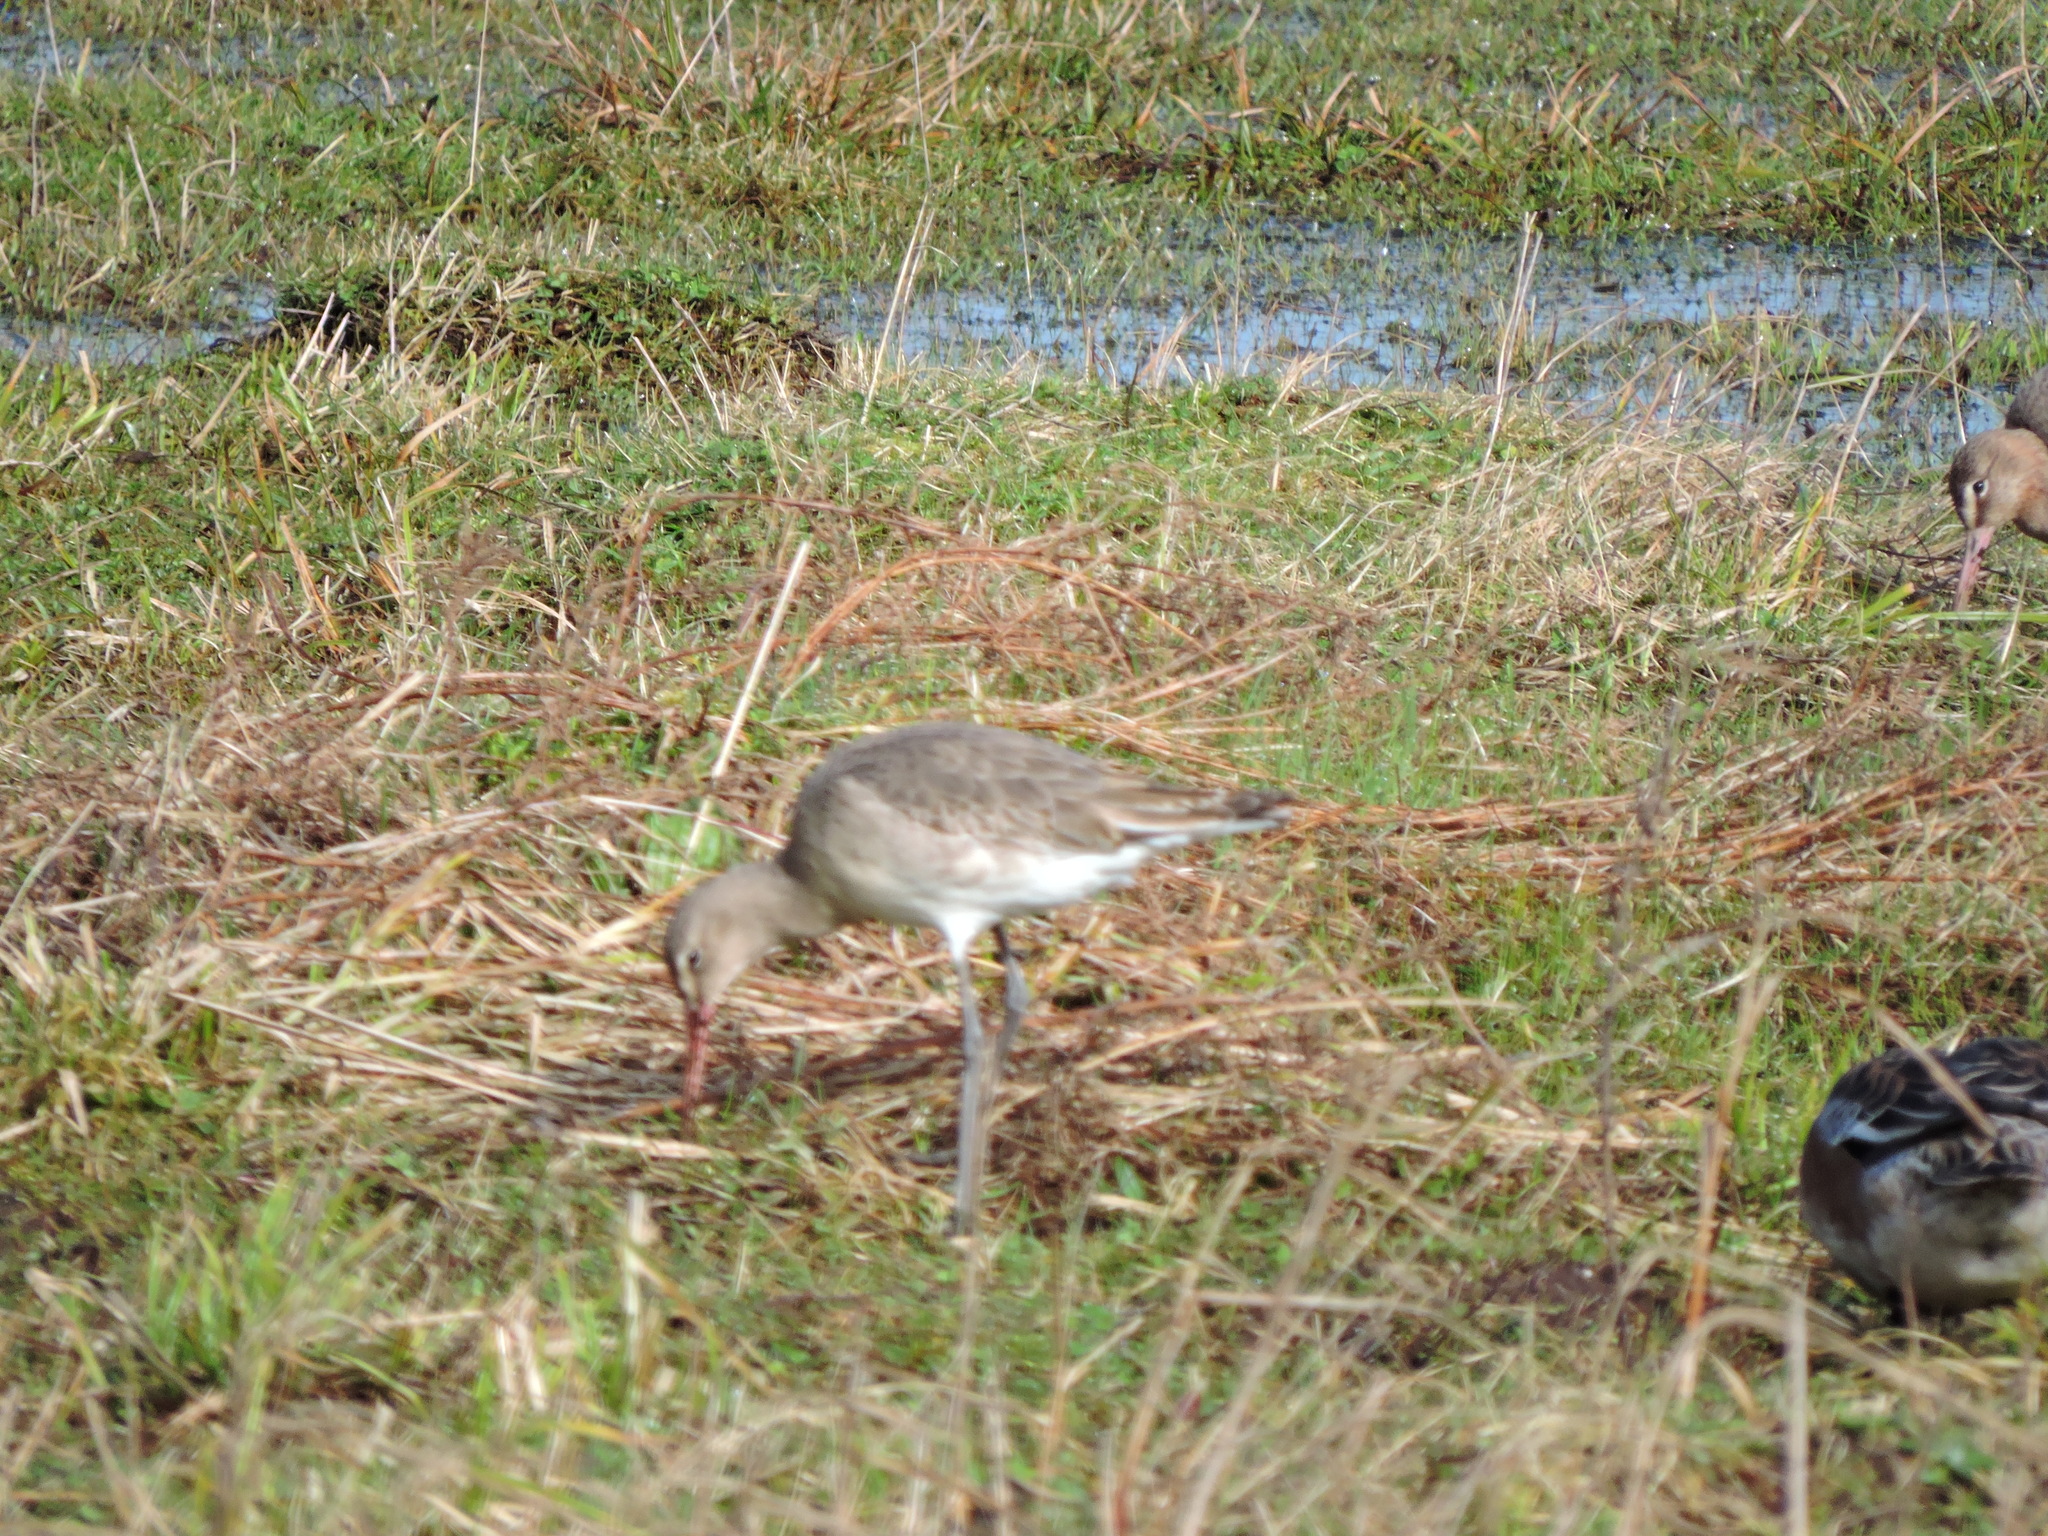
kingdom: Animalia
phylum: Chordata
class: Aves
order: Charadriiformes
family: Scolopacidae
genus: Limosa
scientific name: Limosa limosa
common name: Black-tailed godwit
